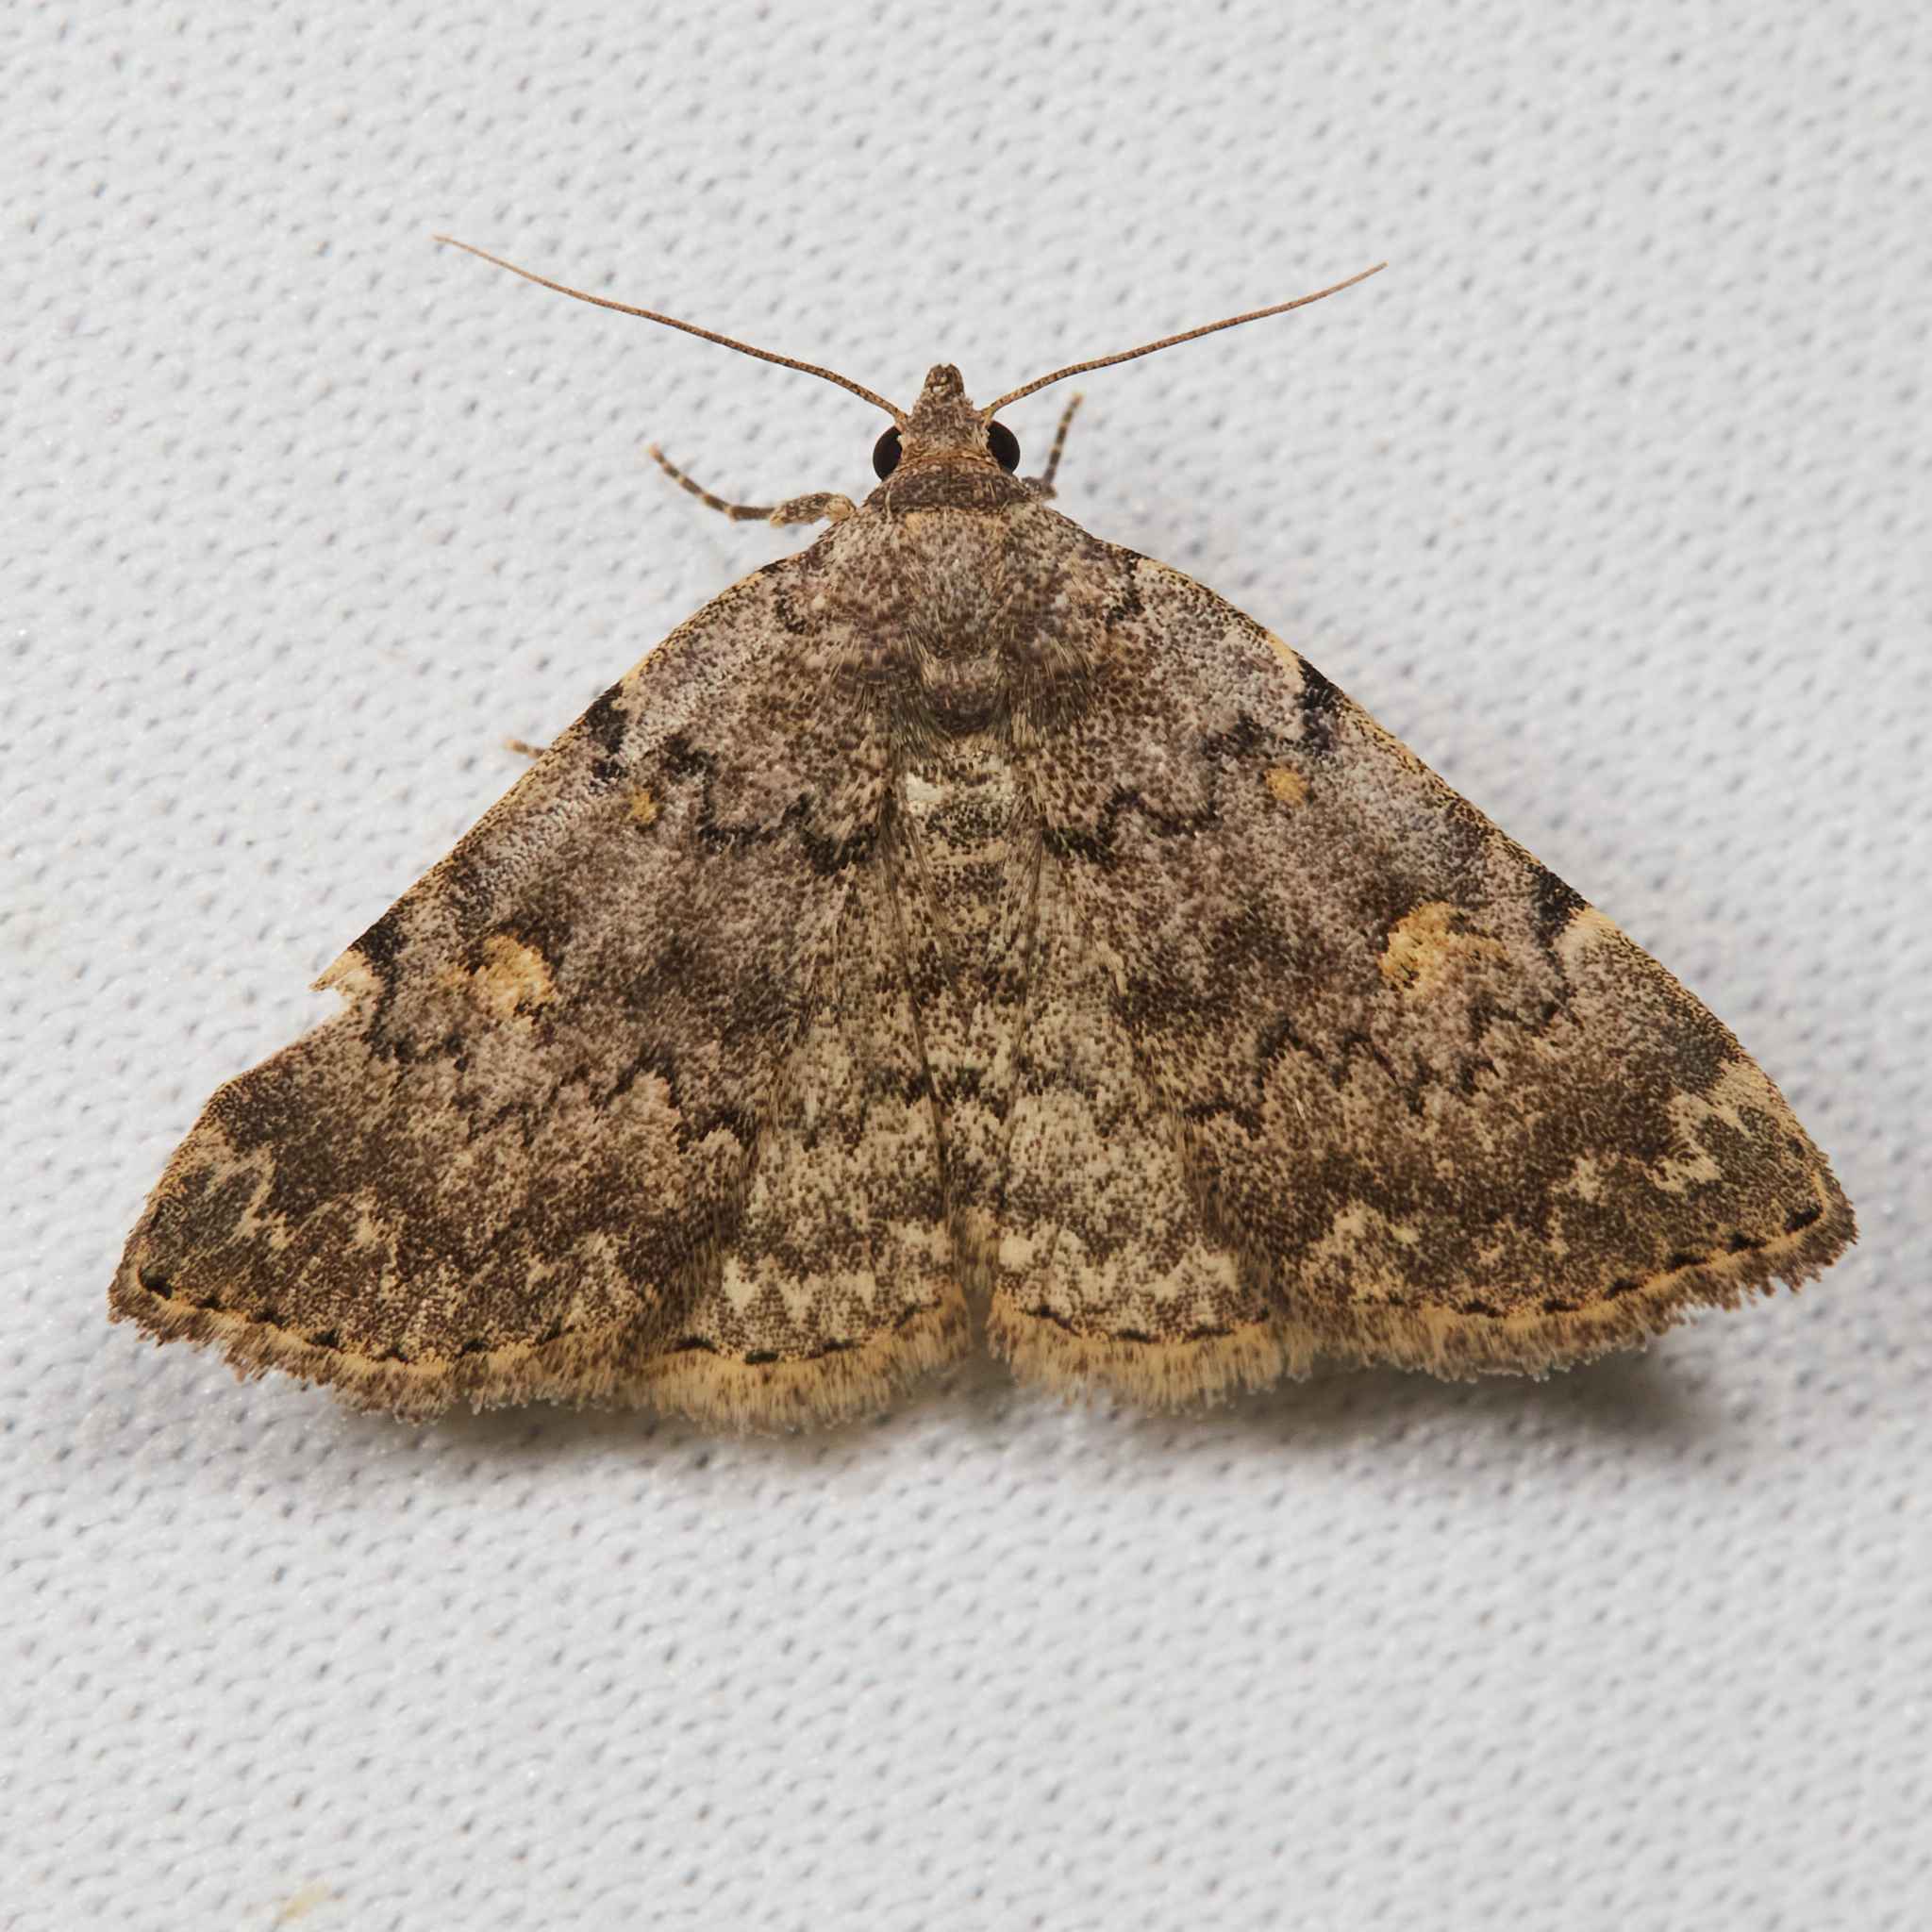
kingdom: Animalia
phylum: Arthropoda
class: Insecta
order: Lepidoptera
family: Erebidae
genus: Idia
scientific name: Idia aemula
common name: Common idia moth
